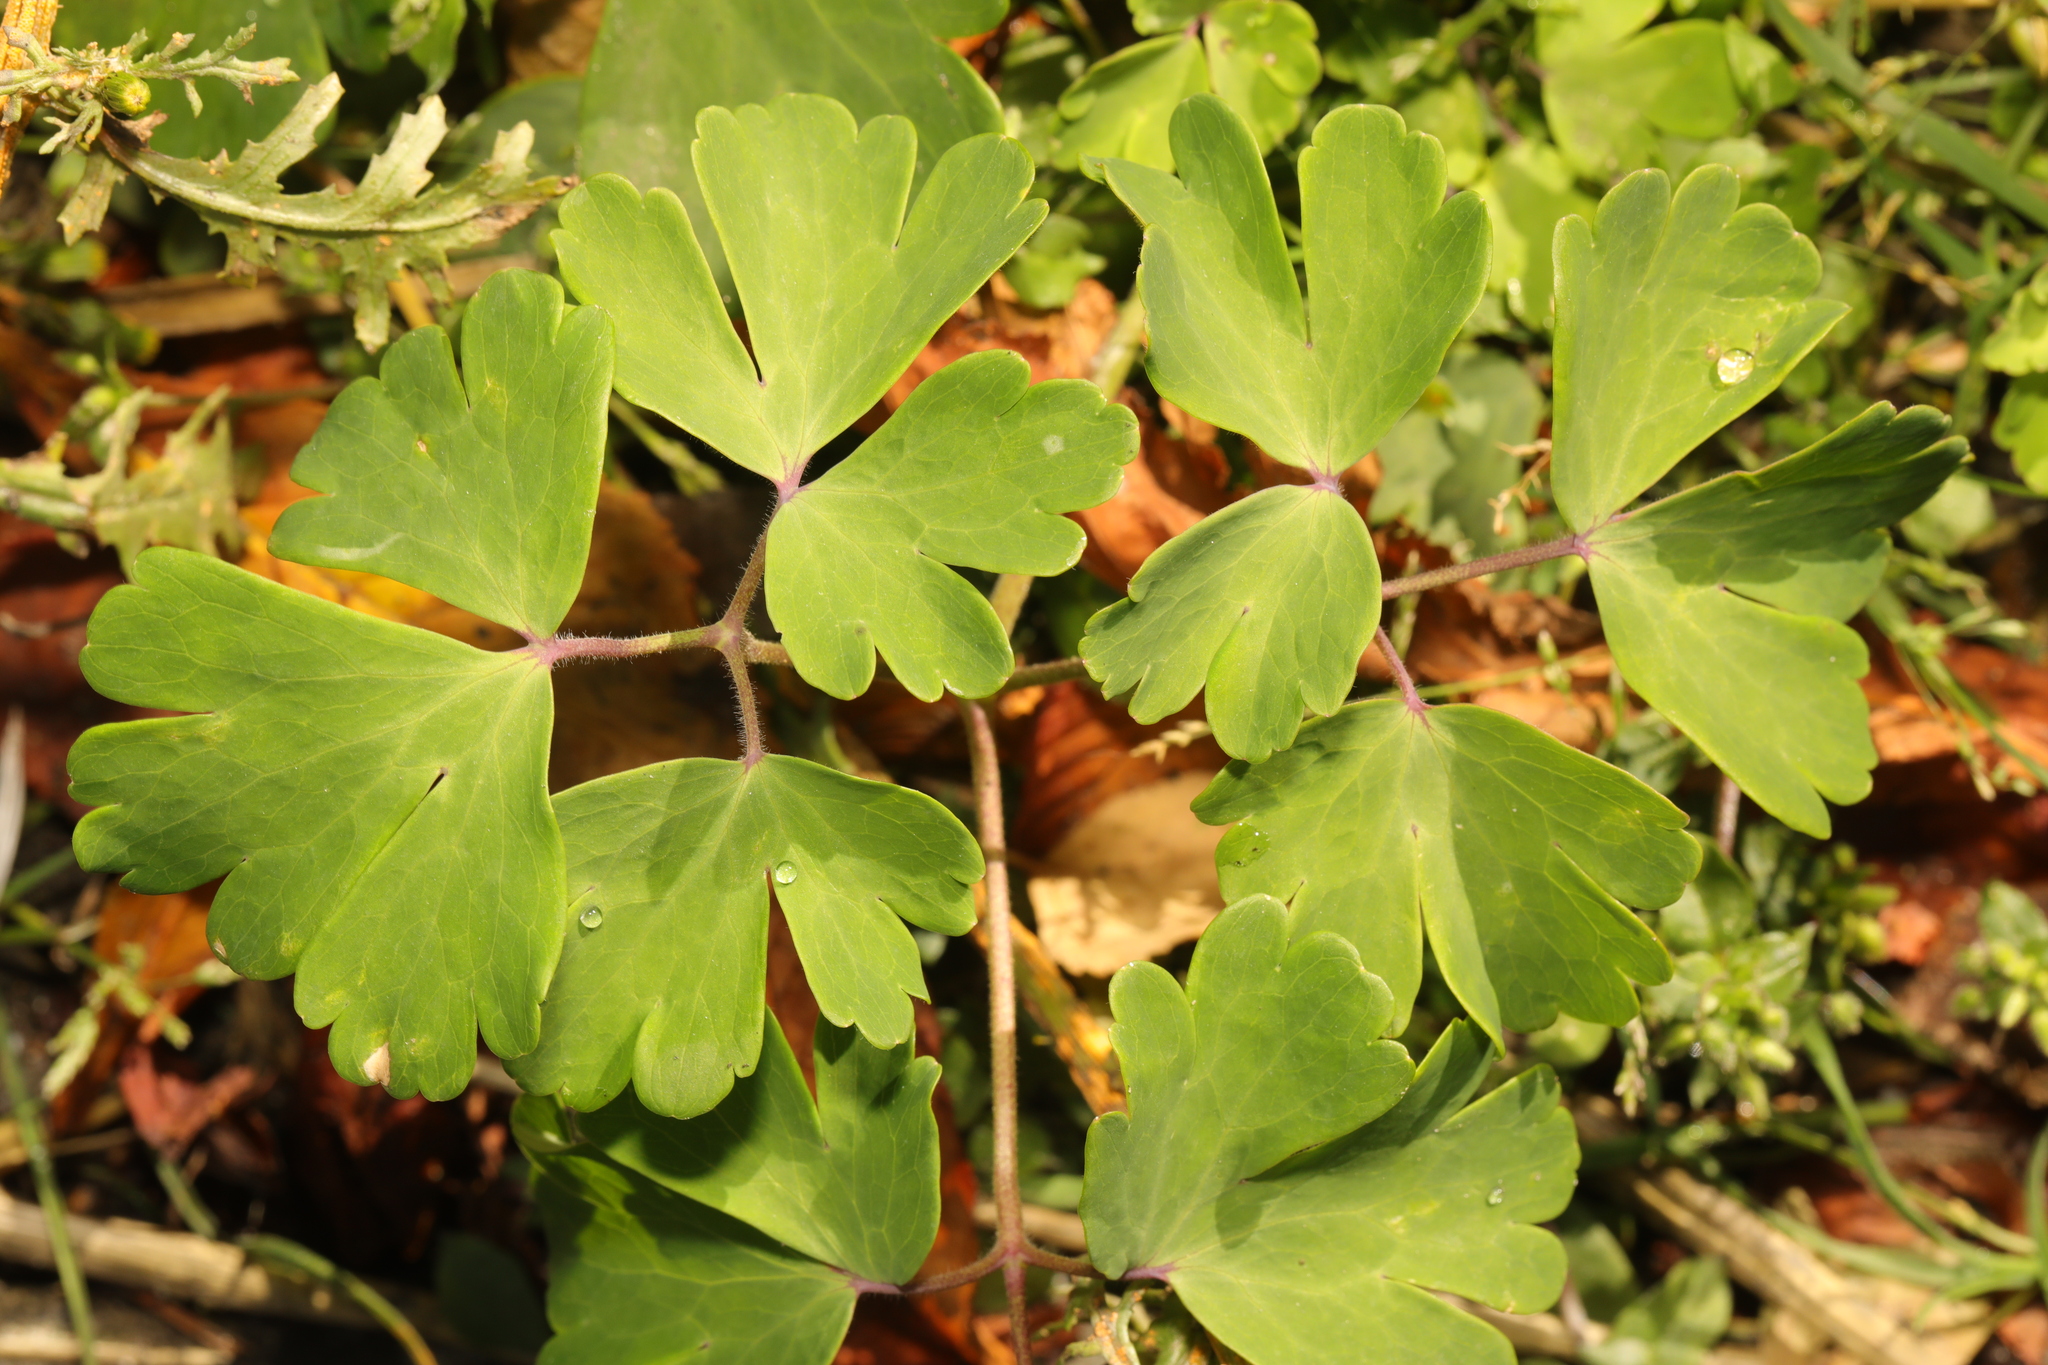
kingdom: Plantae
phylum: Tracheophyta
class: Magnoliopsida
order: Ranunculales
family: Ranunculaceae
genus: Aquilegia
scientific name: Aquilegia vulgaris
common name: Columbine
